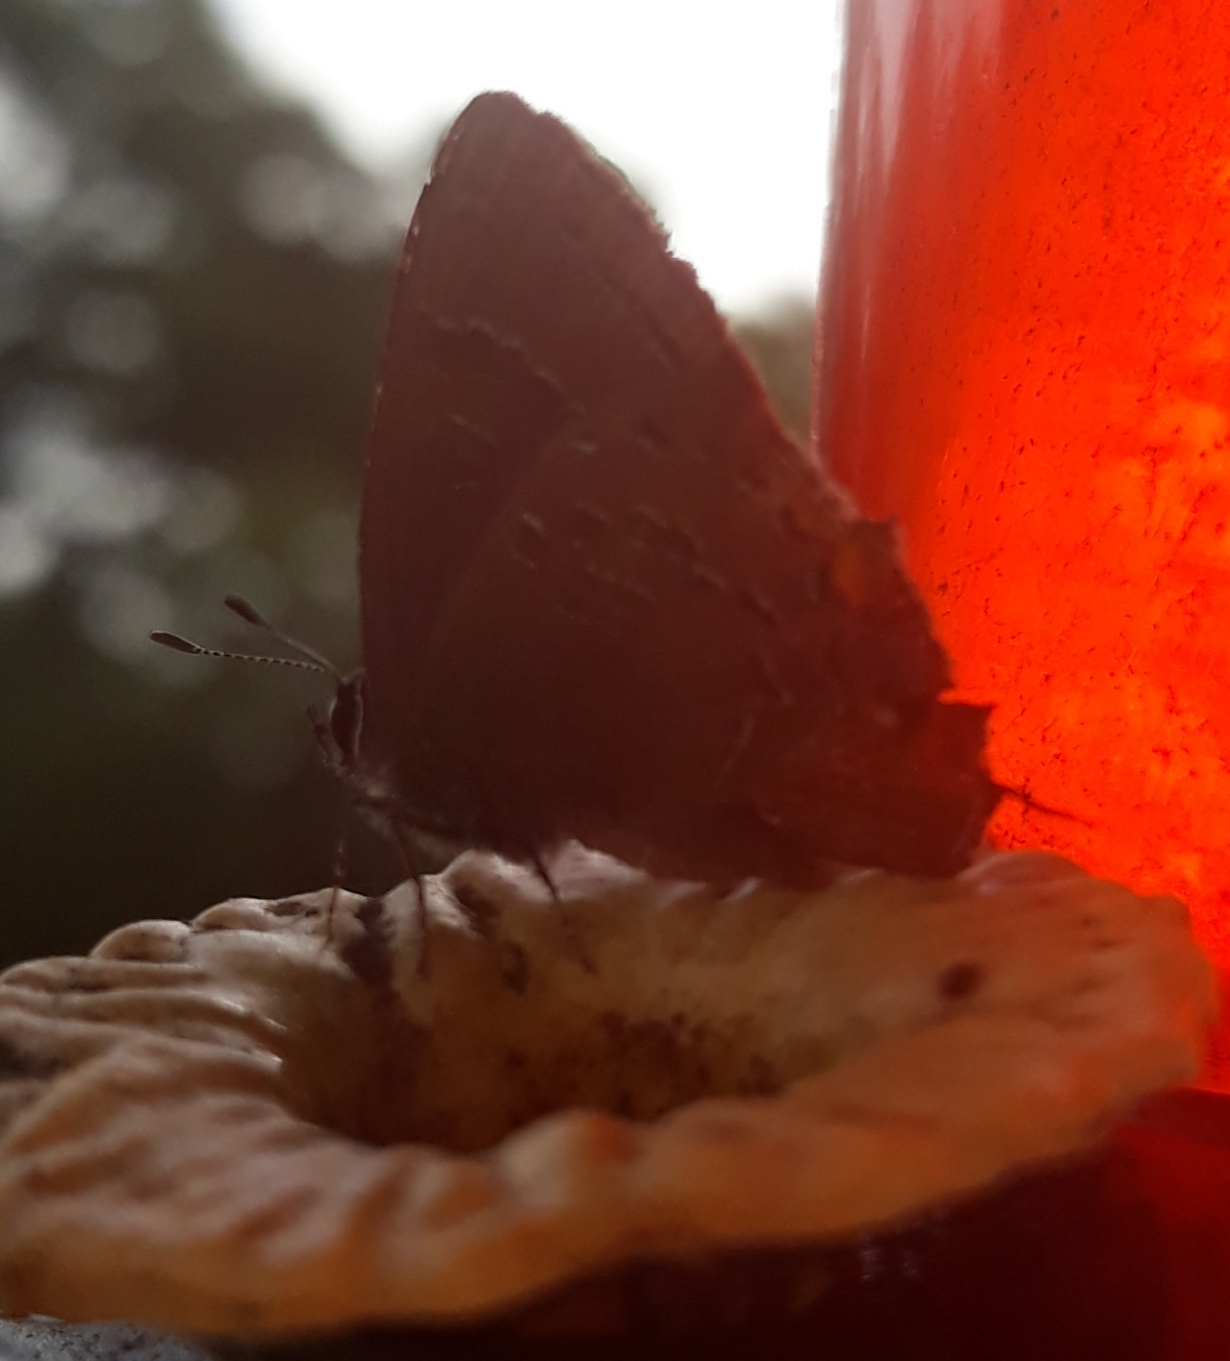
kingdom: Animalia
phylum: Arthropoda
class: Insecta
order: Lepidoptera
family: Lycaenidae
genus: Satyrium
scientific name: Satyrium calanus
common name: Banded hairstreak
